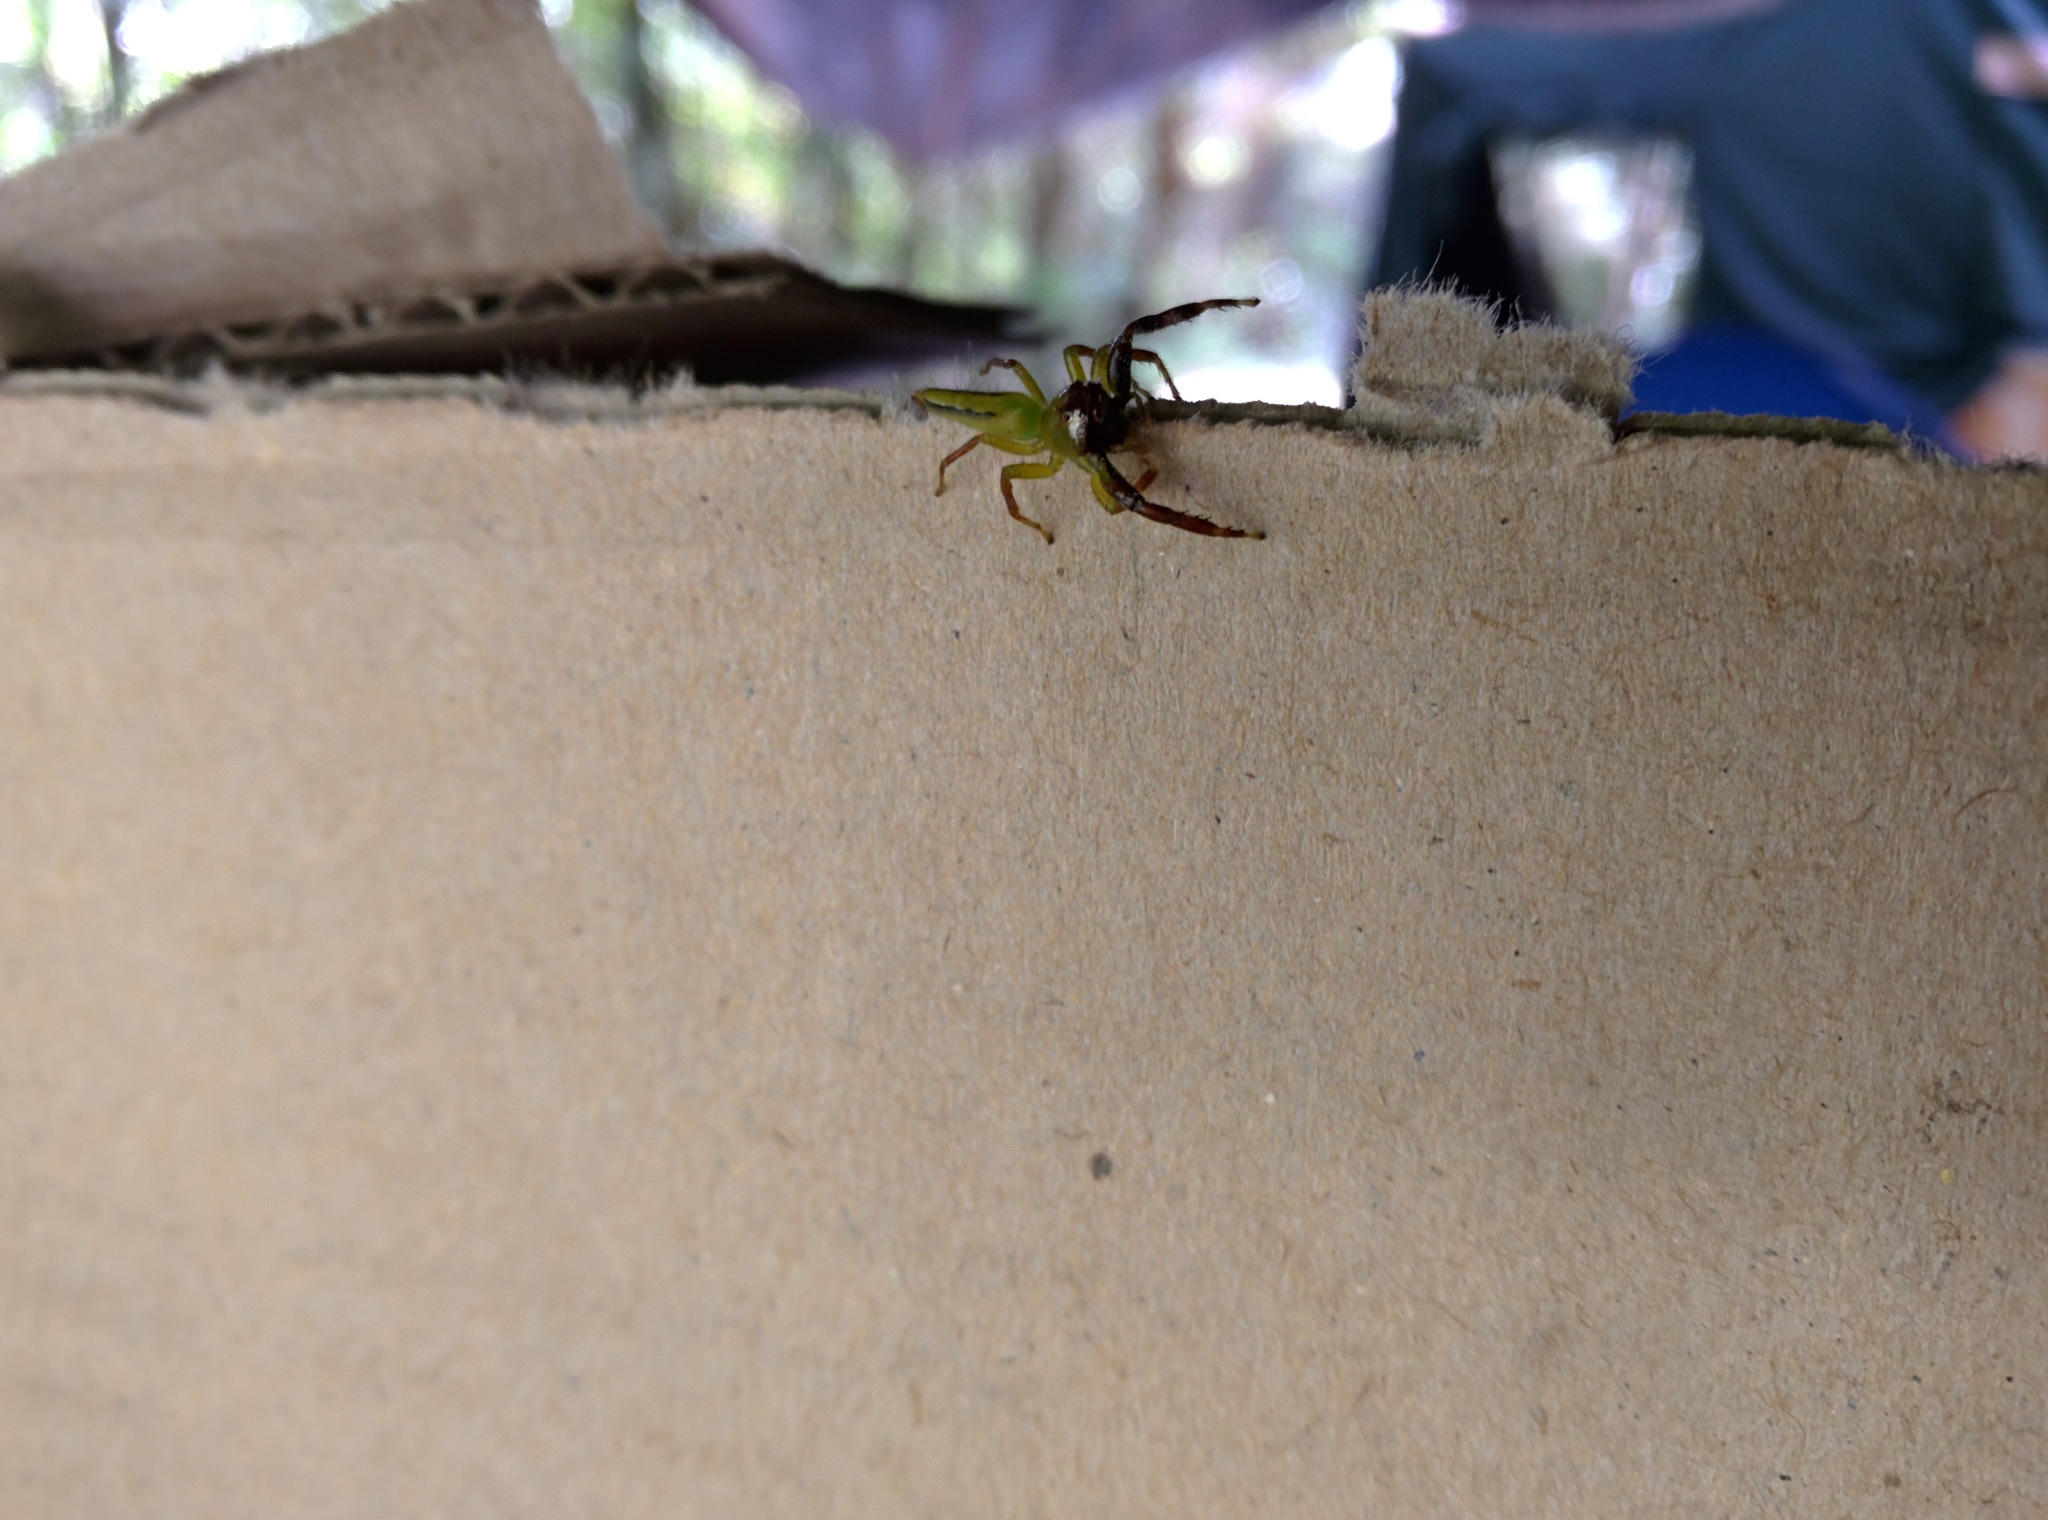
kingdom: Animalia
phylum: Arthropoda
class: Arachnida
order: Araneae
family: Salticidae
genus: Mopsus
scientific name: Mopsus mormon
